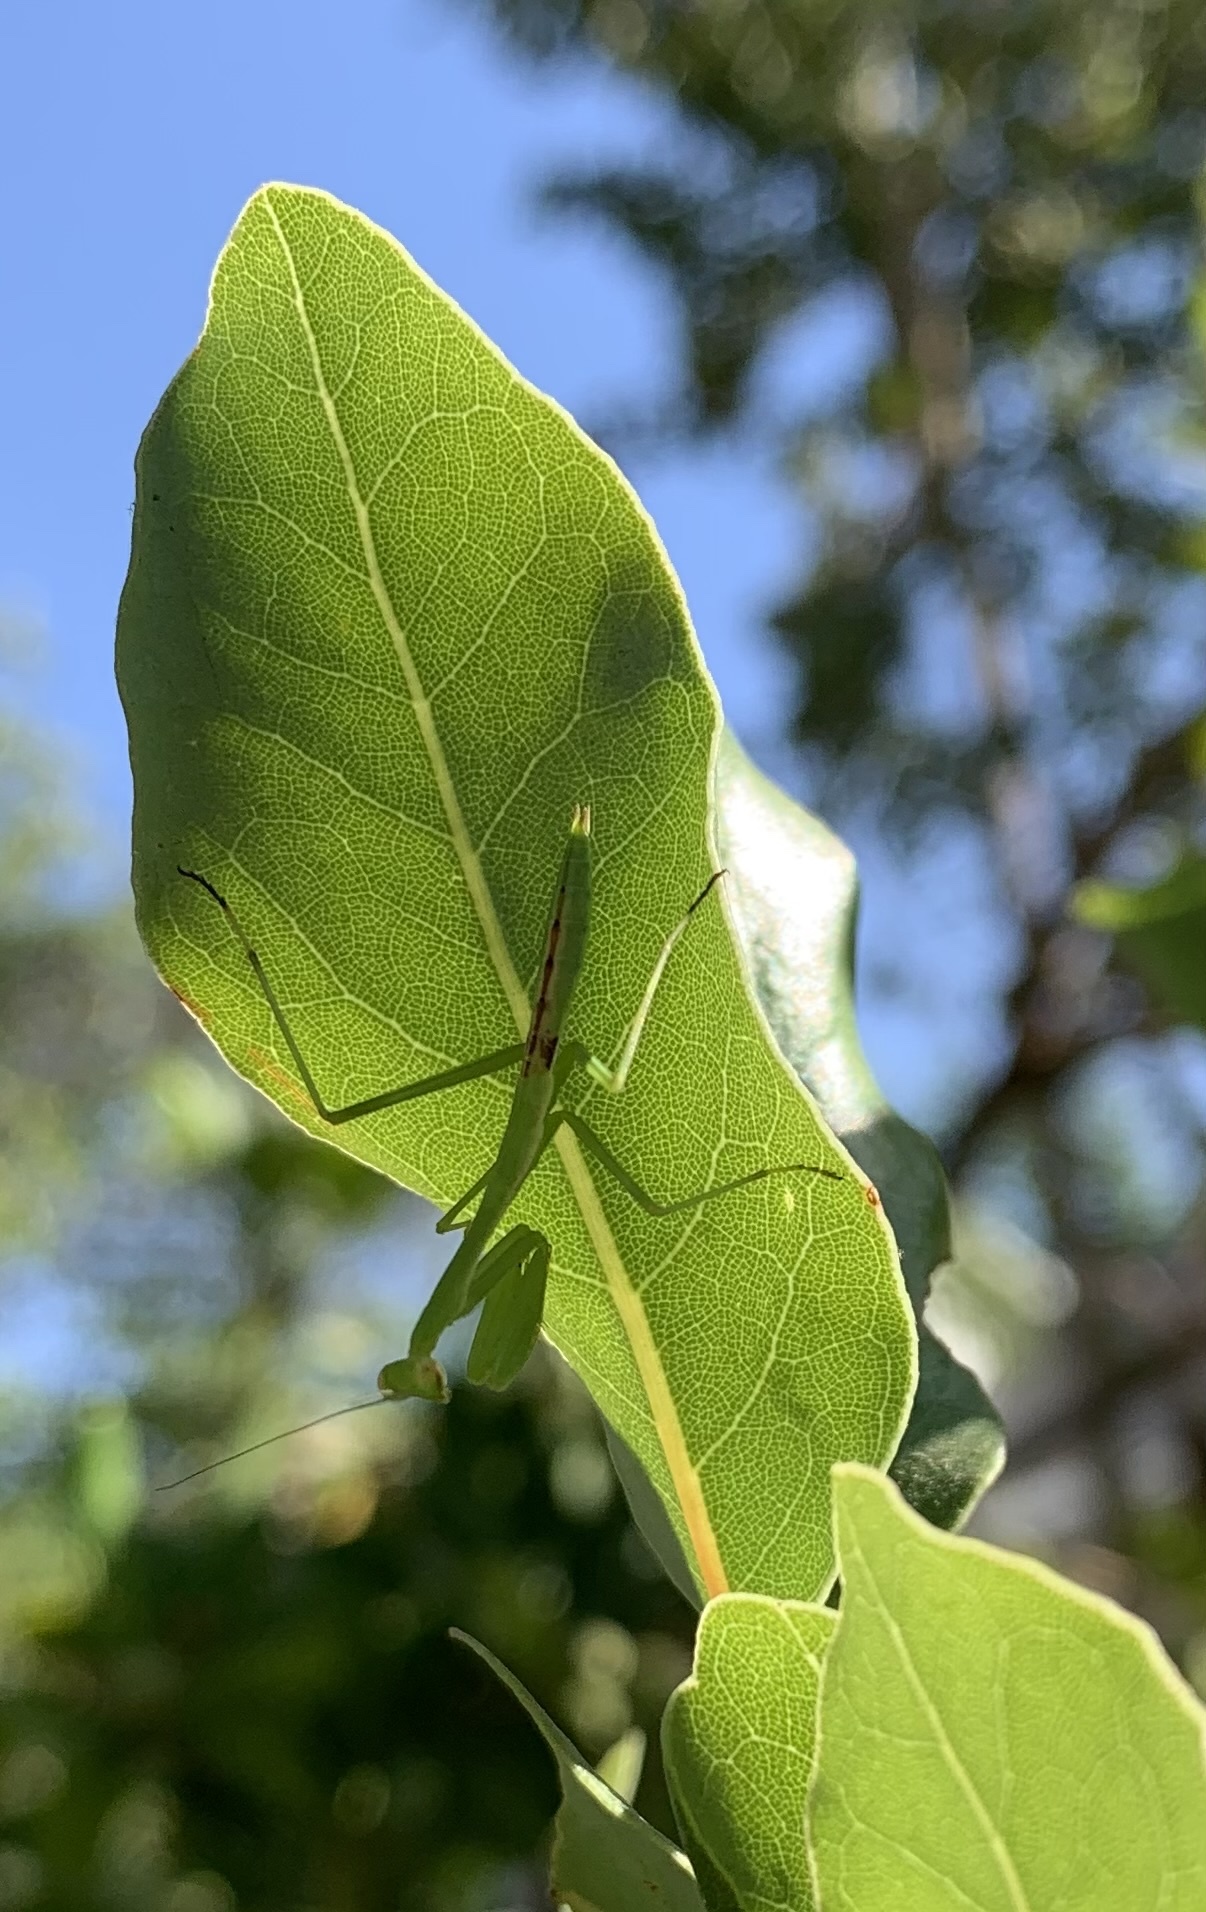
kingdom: Animalia
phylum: Arthropoda
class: Insecta
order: Mantodea
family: Coptopterygidae
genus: Coptopteryx
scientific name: Coptopteryx gayi
